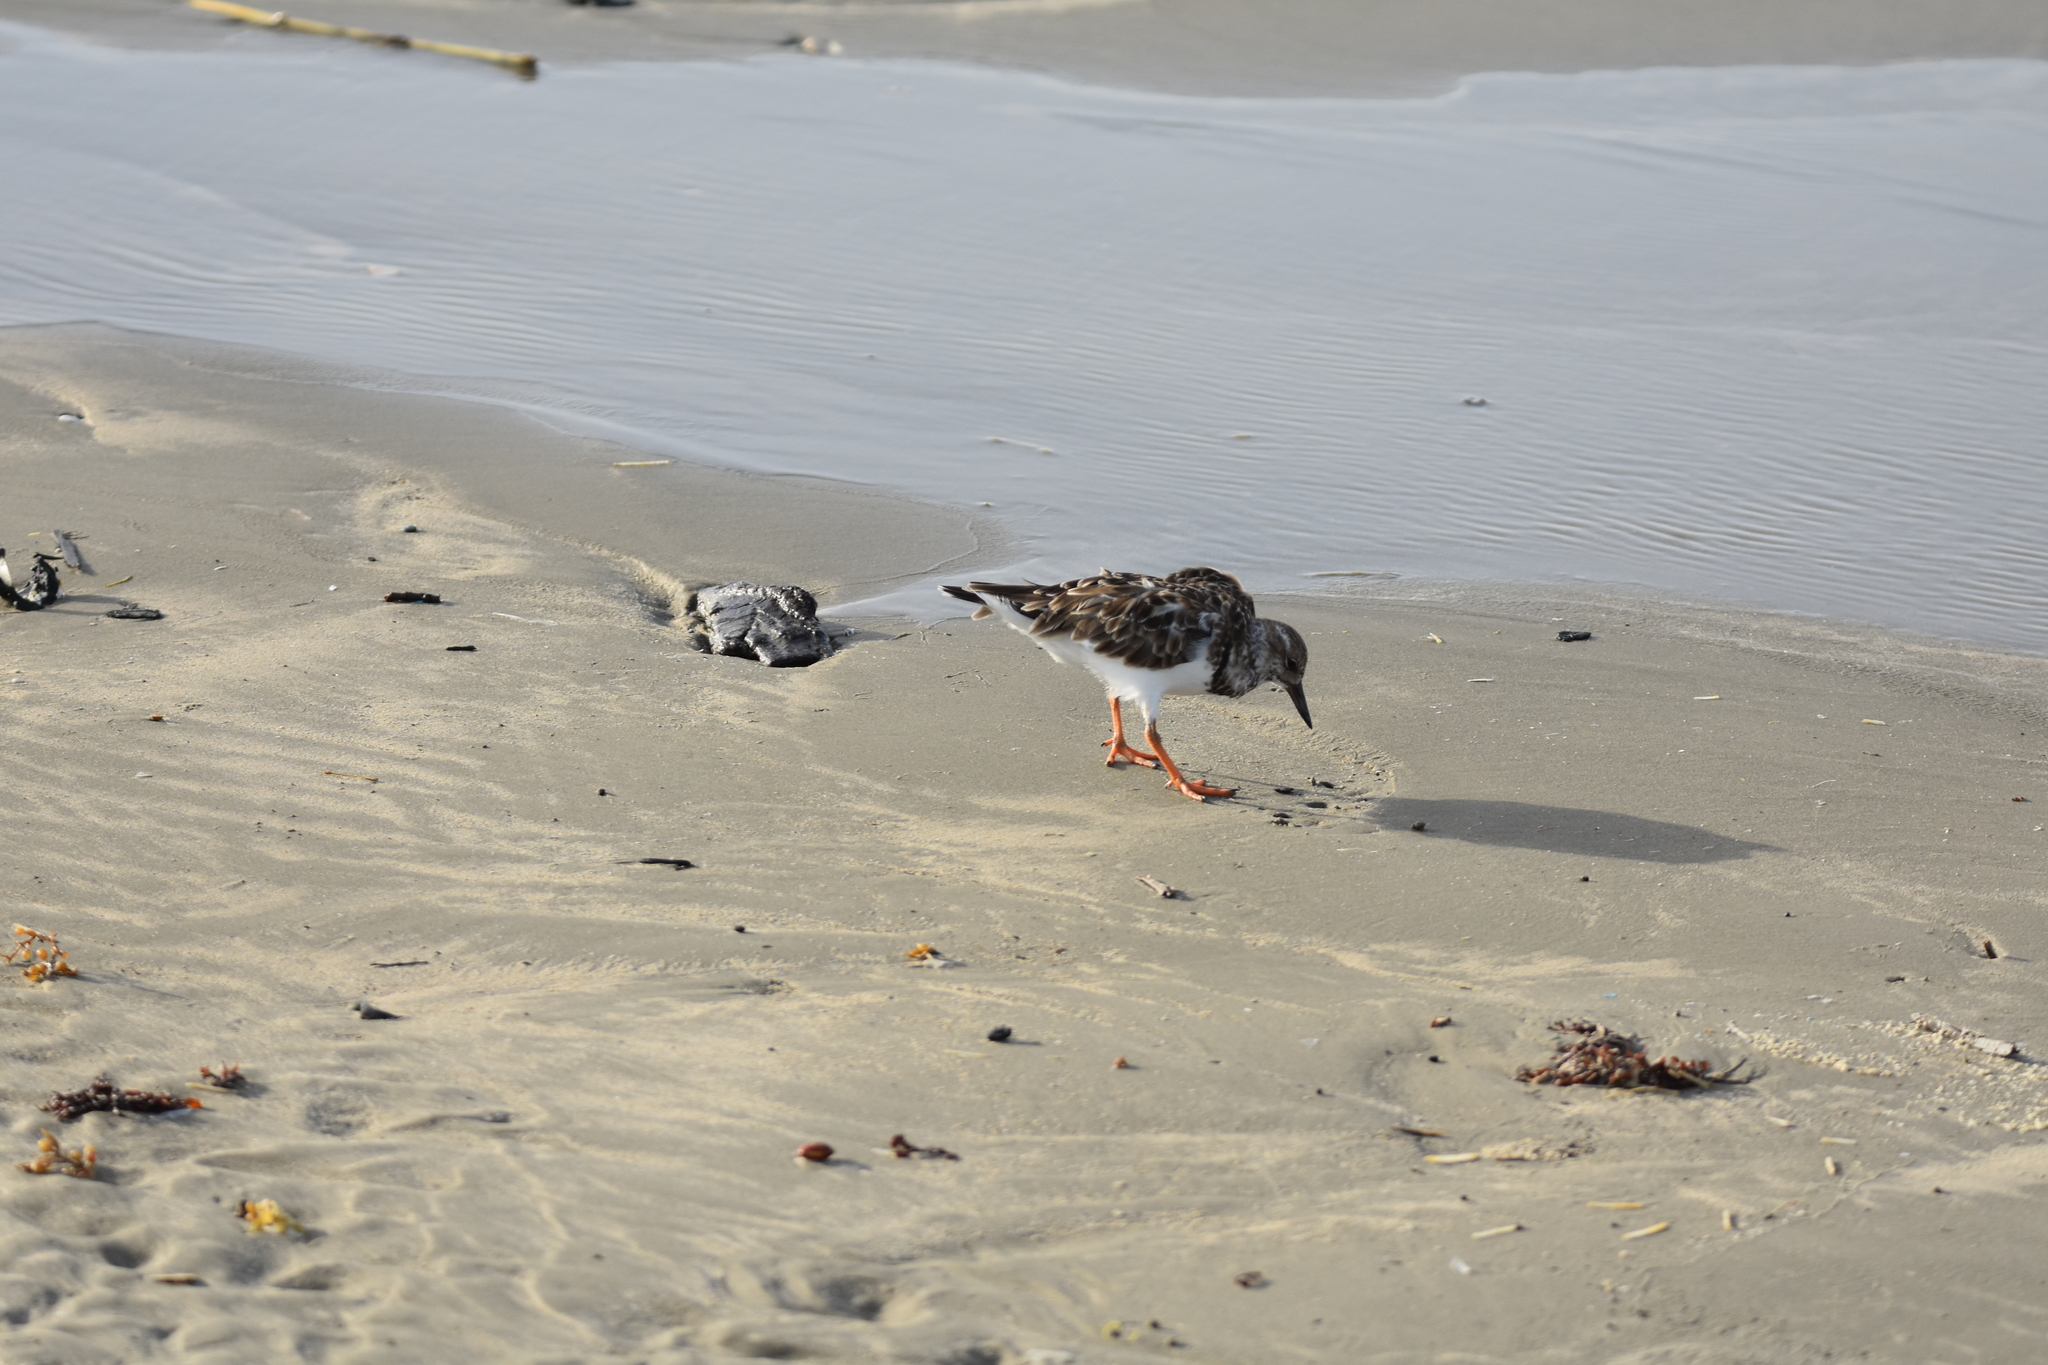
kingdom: Animalia
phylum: Chordata
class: Aves
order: Charadriiformes
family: Scolopacidae
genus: Arenaria
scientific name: Arenaria interpres
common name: Ruddy turnstone
